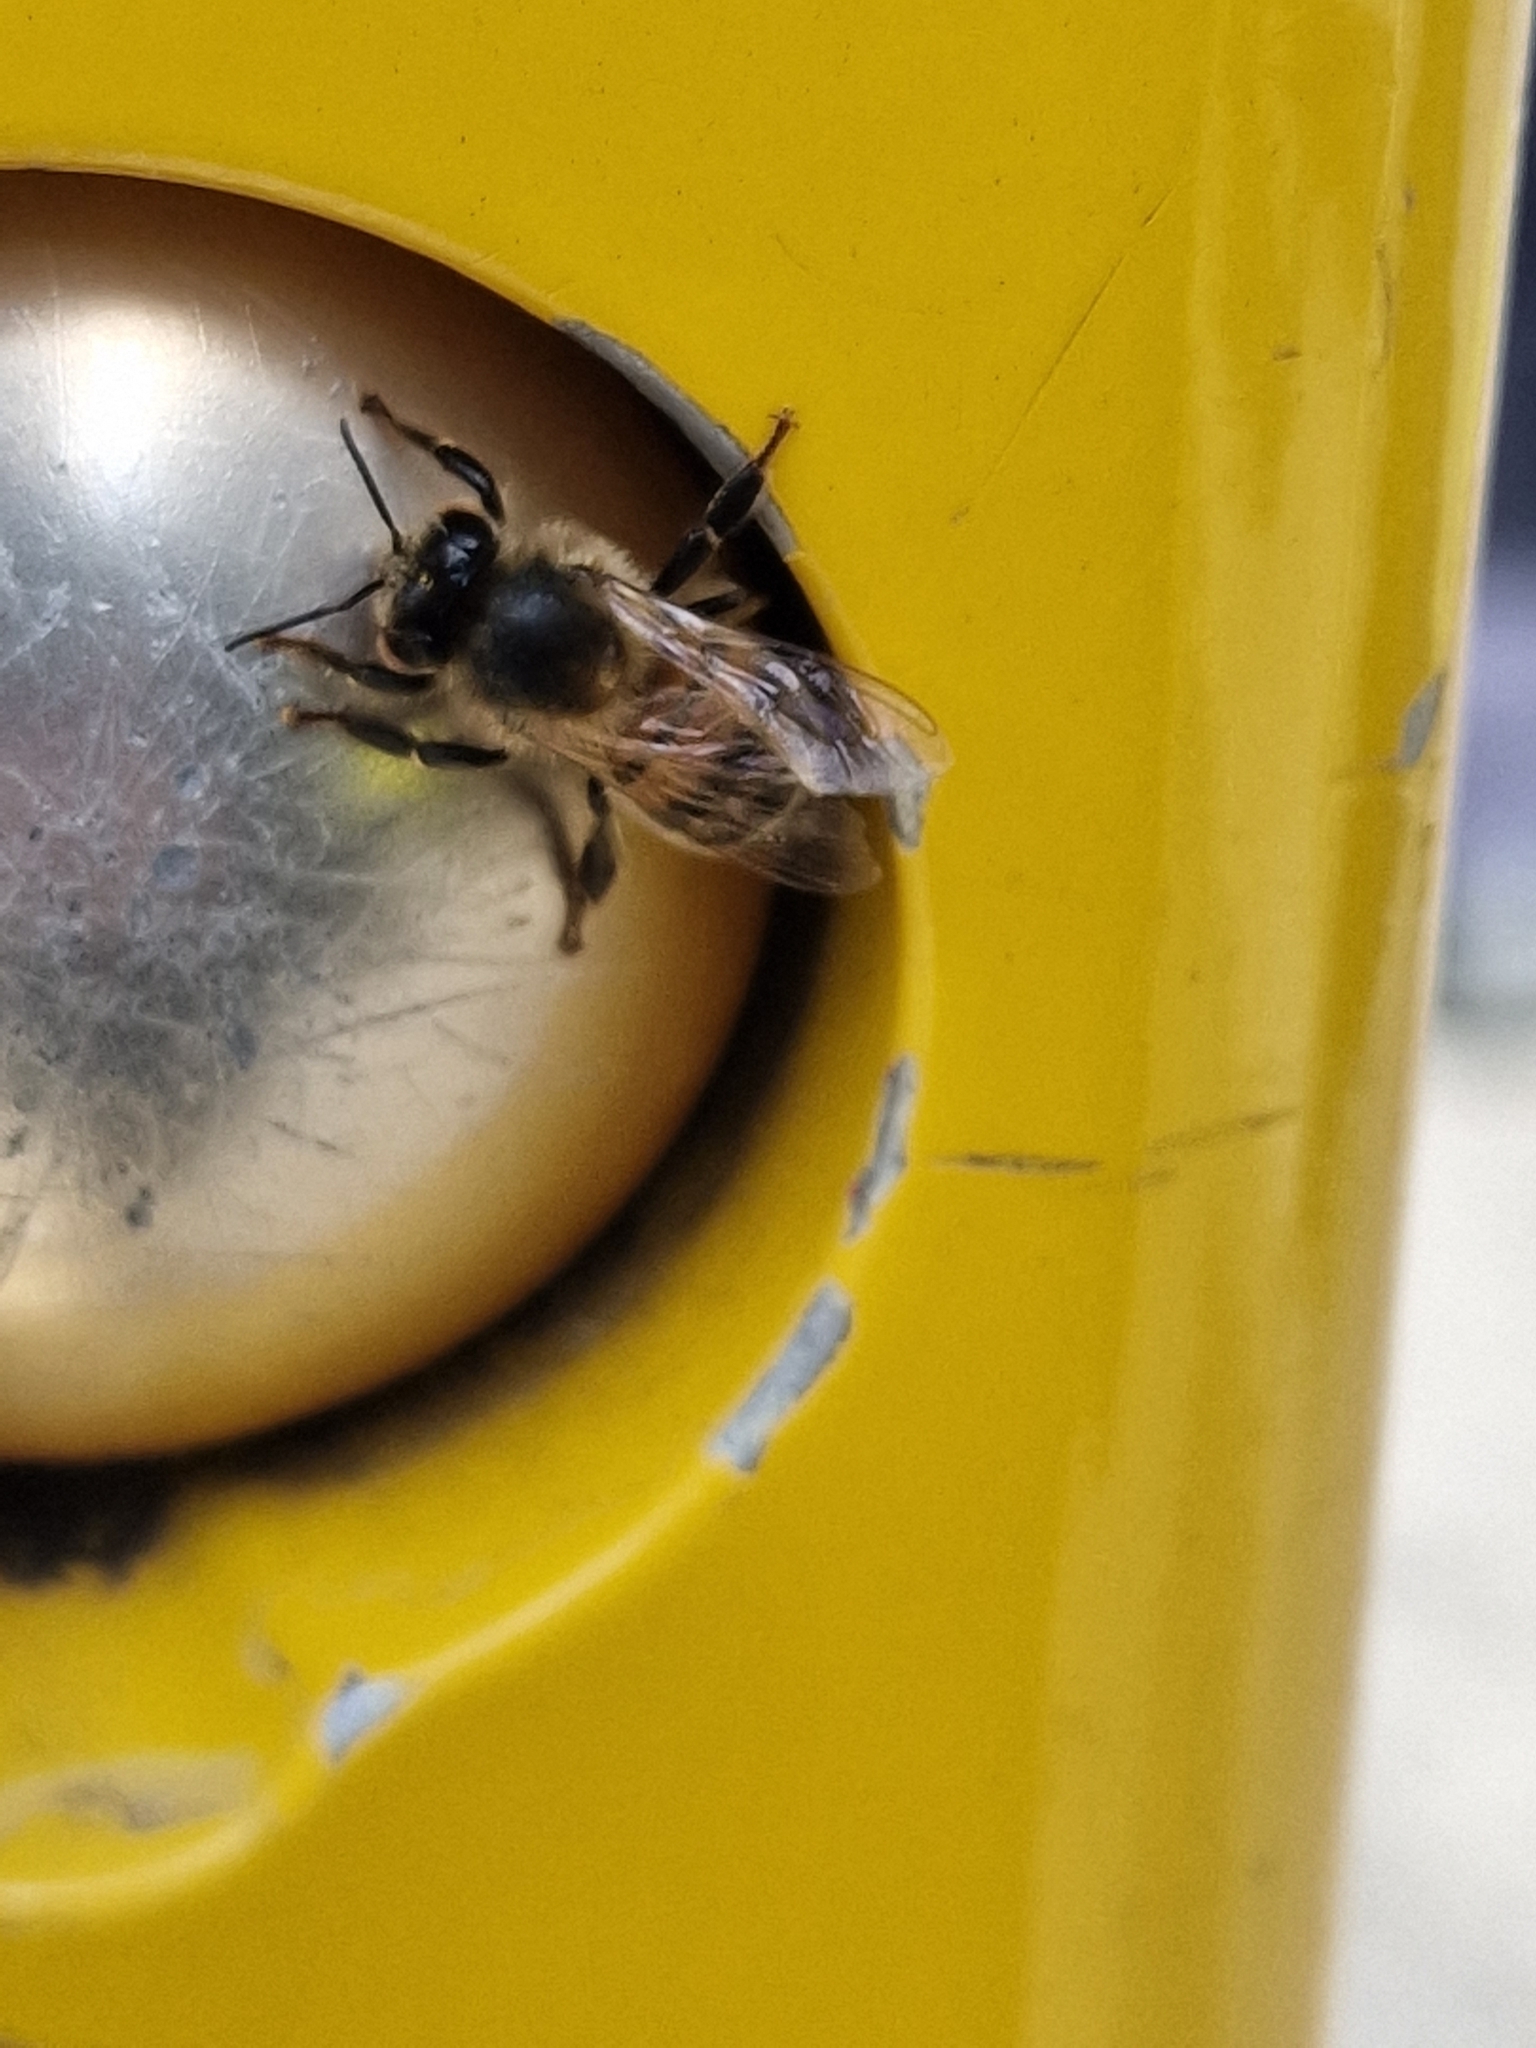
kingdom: Animalia
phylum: Arthropoda
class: Insecta
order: Hymenoptera
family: Apidae
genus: Apis
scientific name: Apis mellifera
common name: Honey bee
